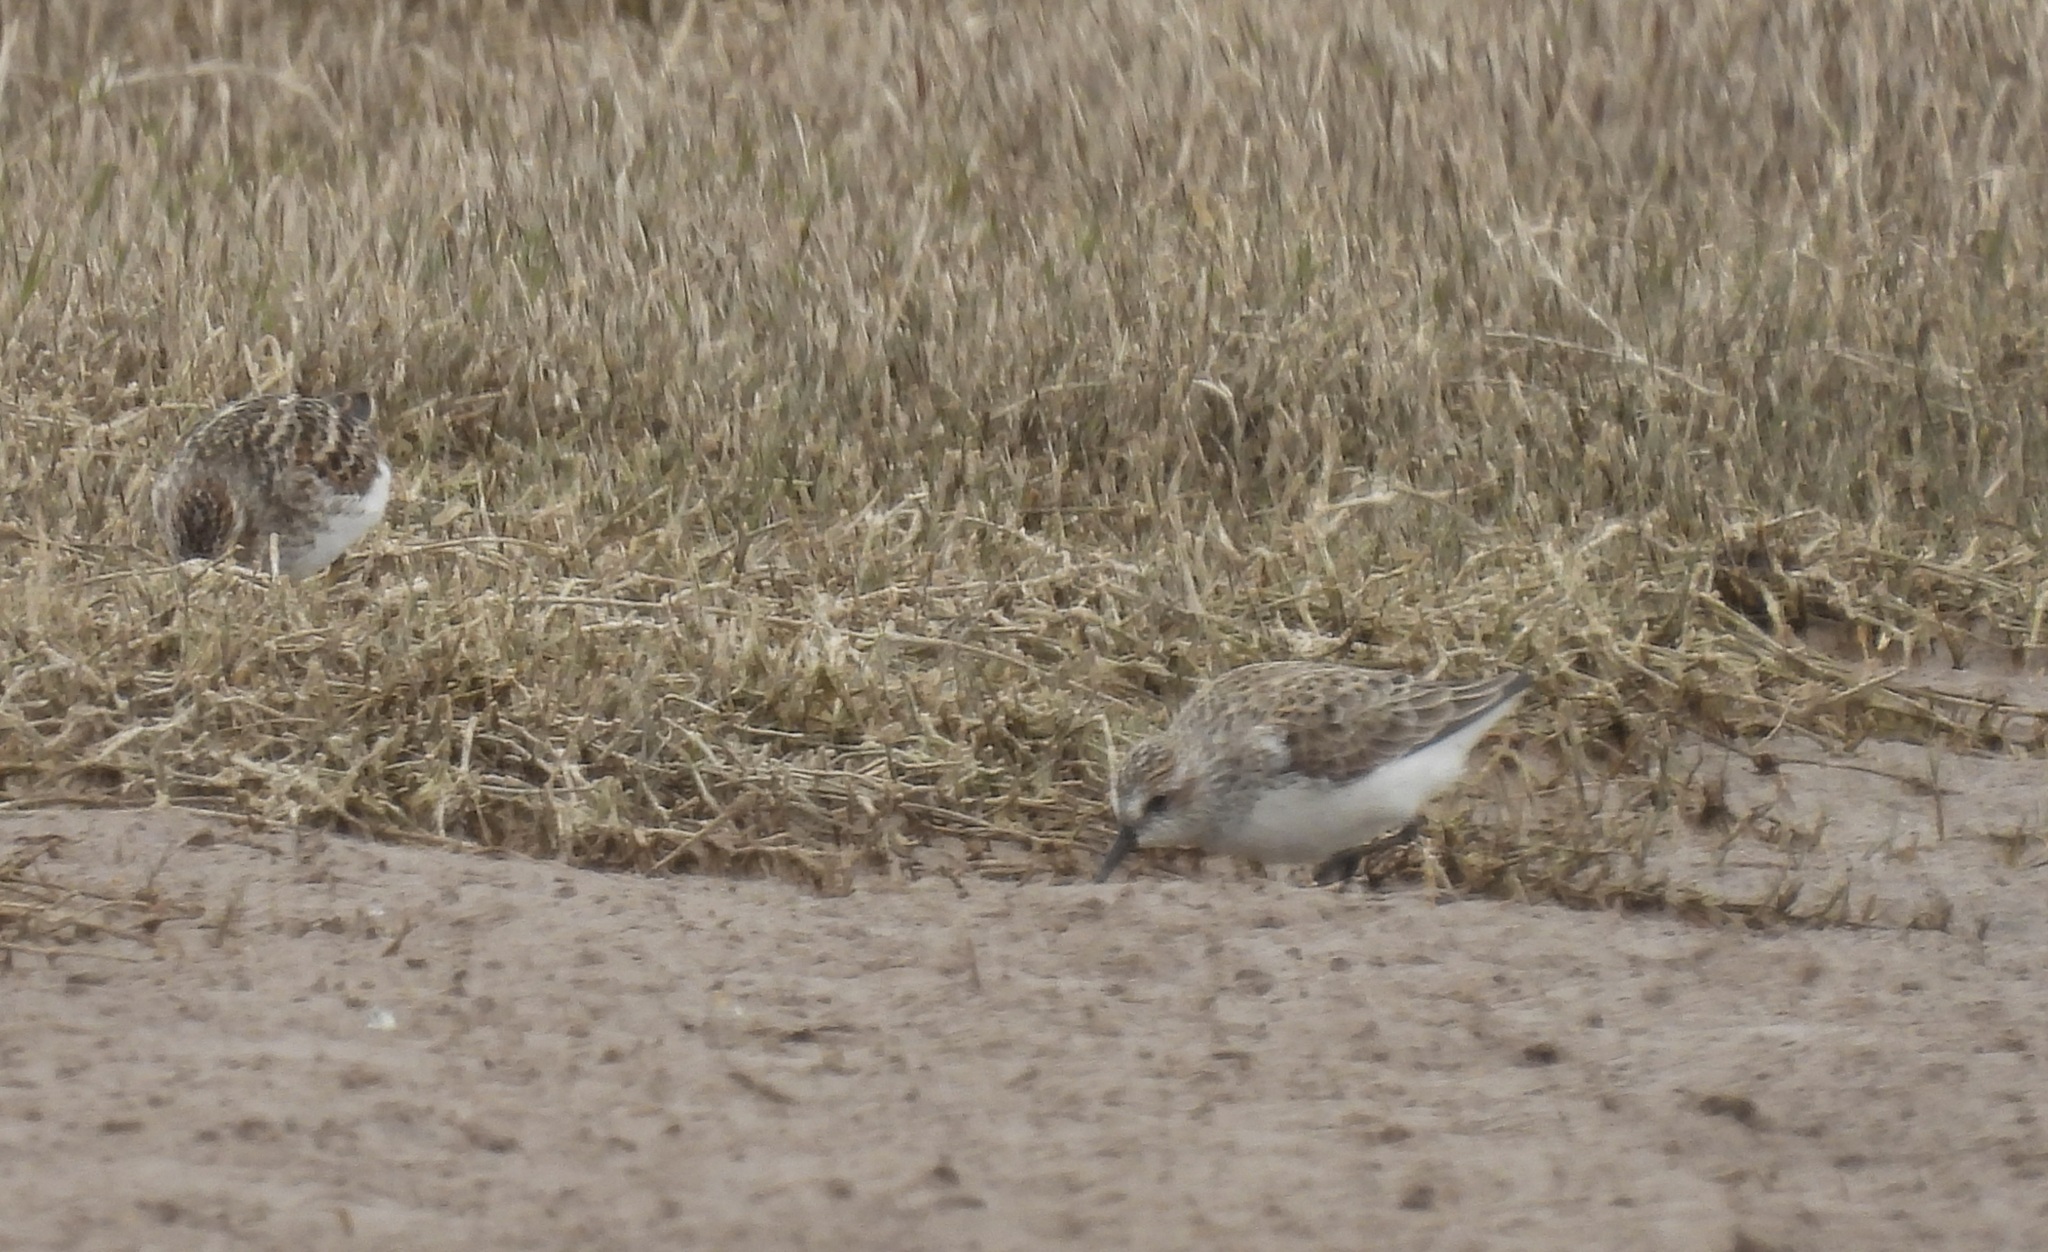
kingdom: Animalia
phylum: Chordata
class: Aves
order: Charadriiformes
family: Scolopacidae
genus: Calidris
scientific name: Calidris pusilla
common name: Semipalmated sandpiper
